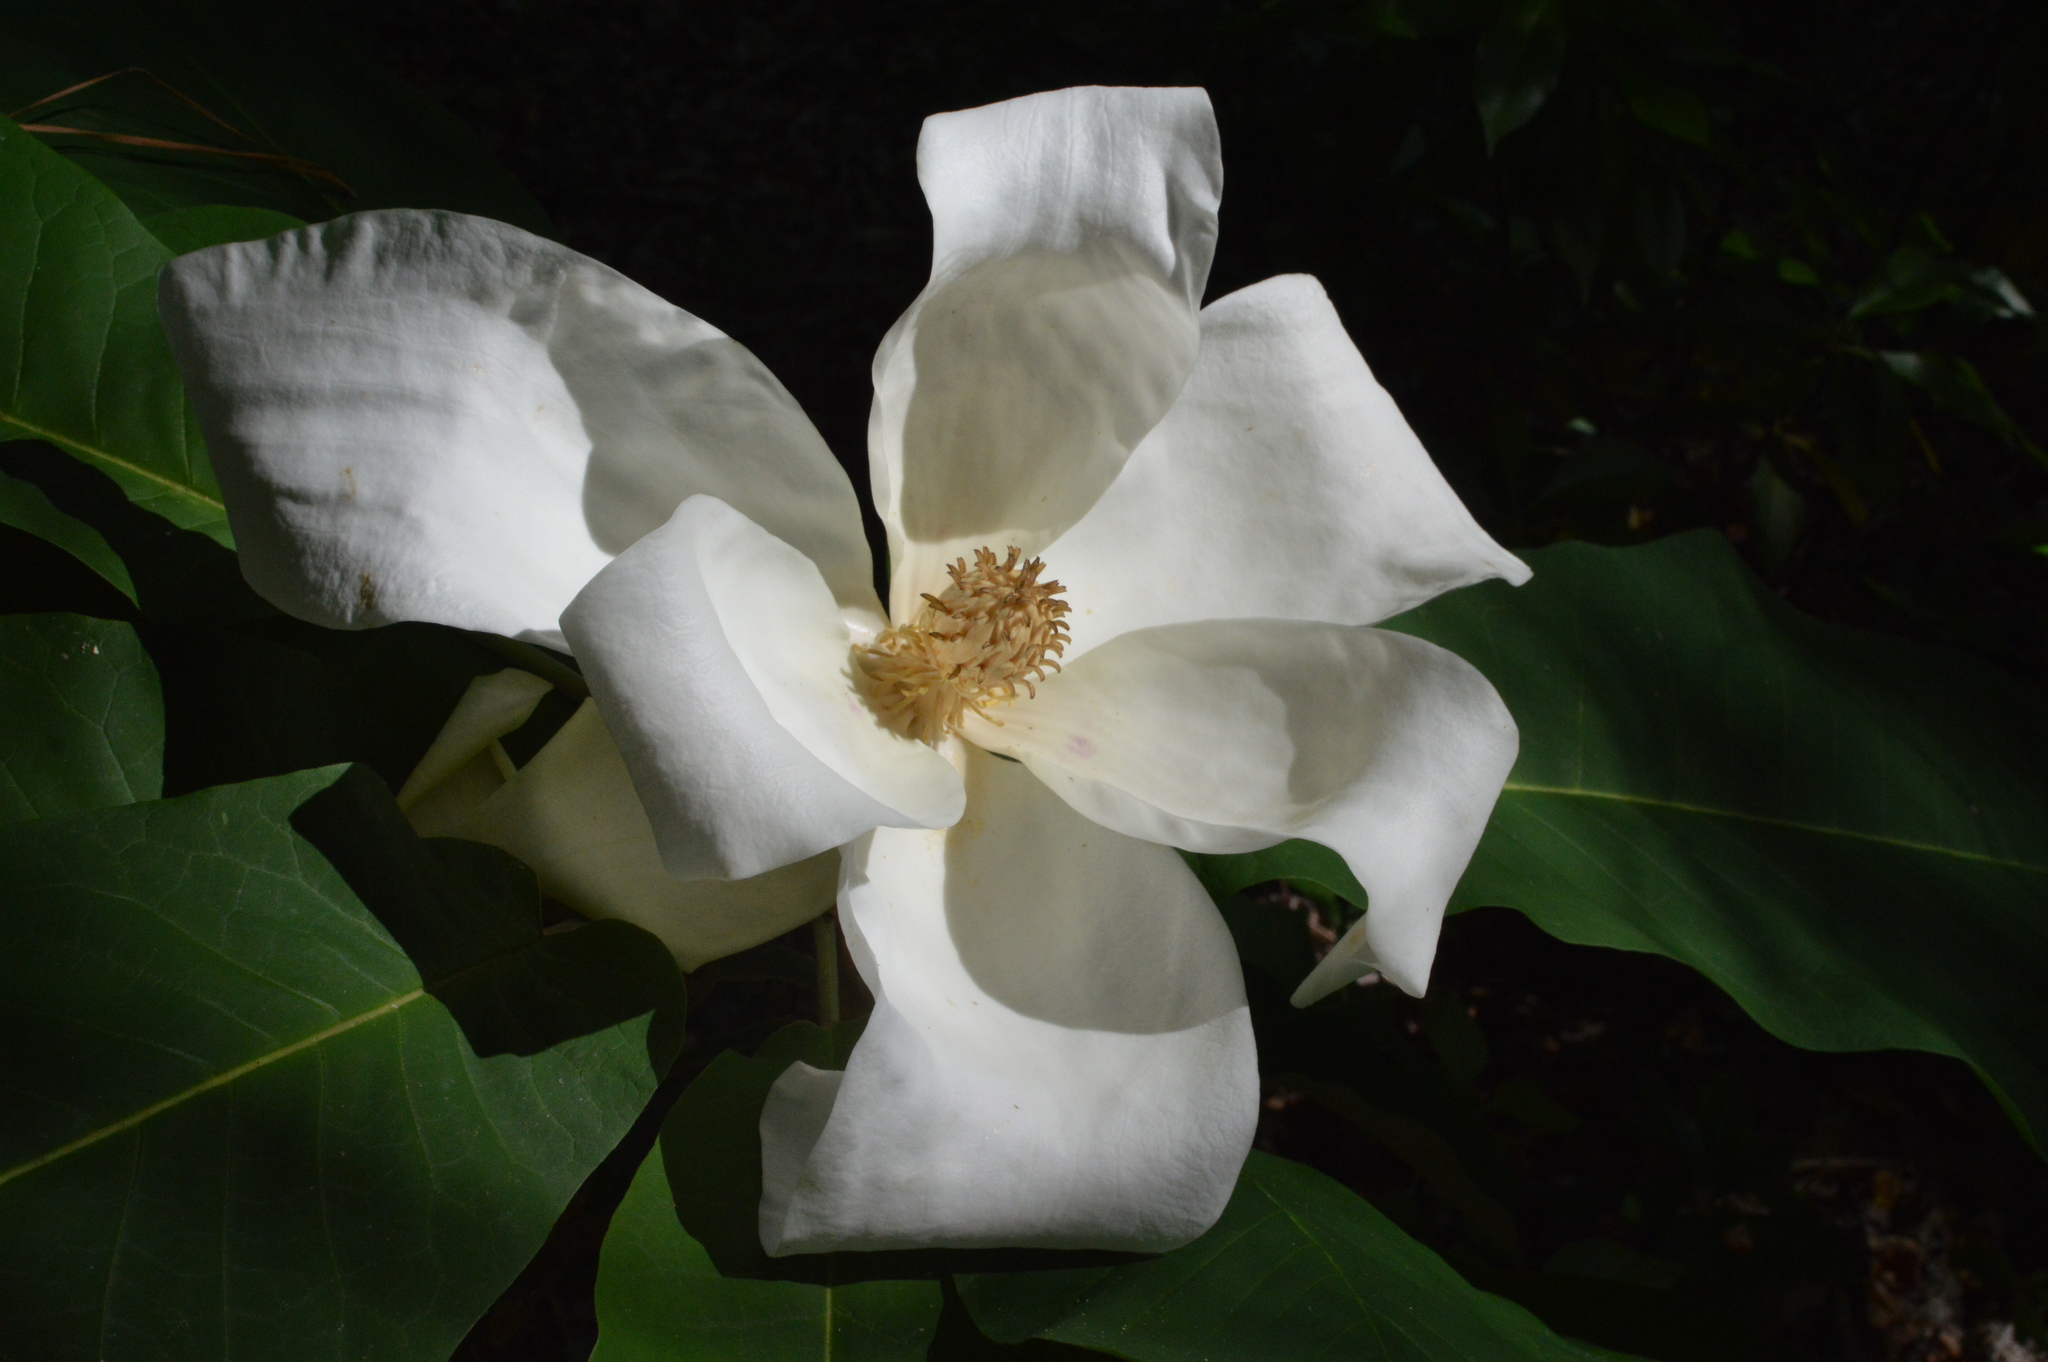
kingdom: Plantae
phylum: Tracheophyta
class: Magnoliopsida
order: Magnoliales
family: Magnoliaceae
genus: Magnolia
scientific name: Magnolia macrophylla
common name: Big-leaf magnolia
